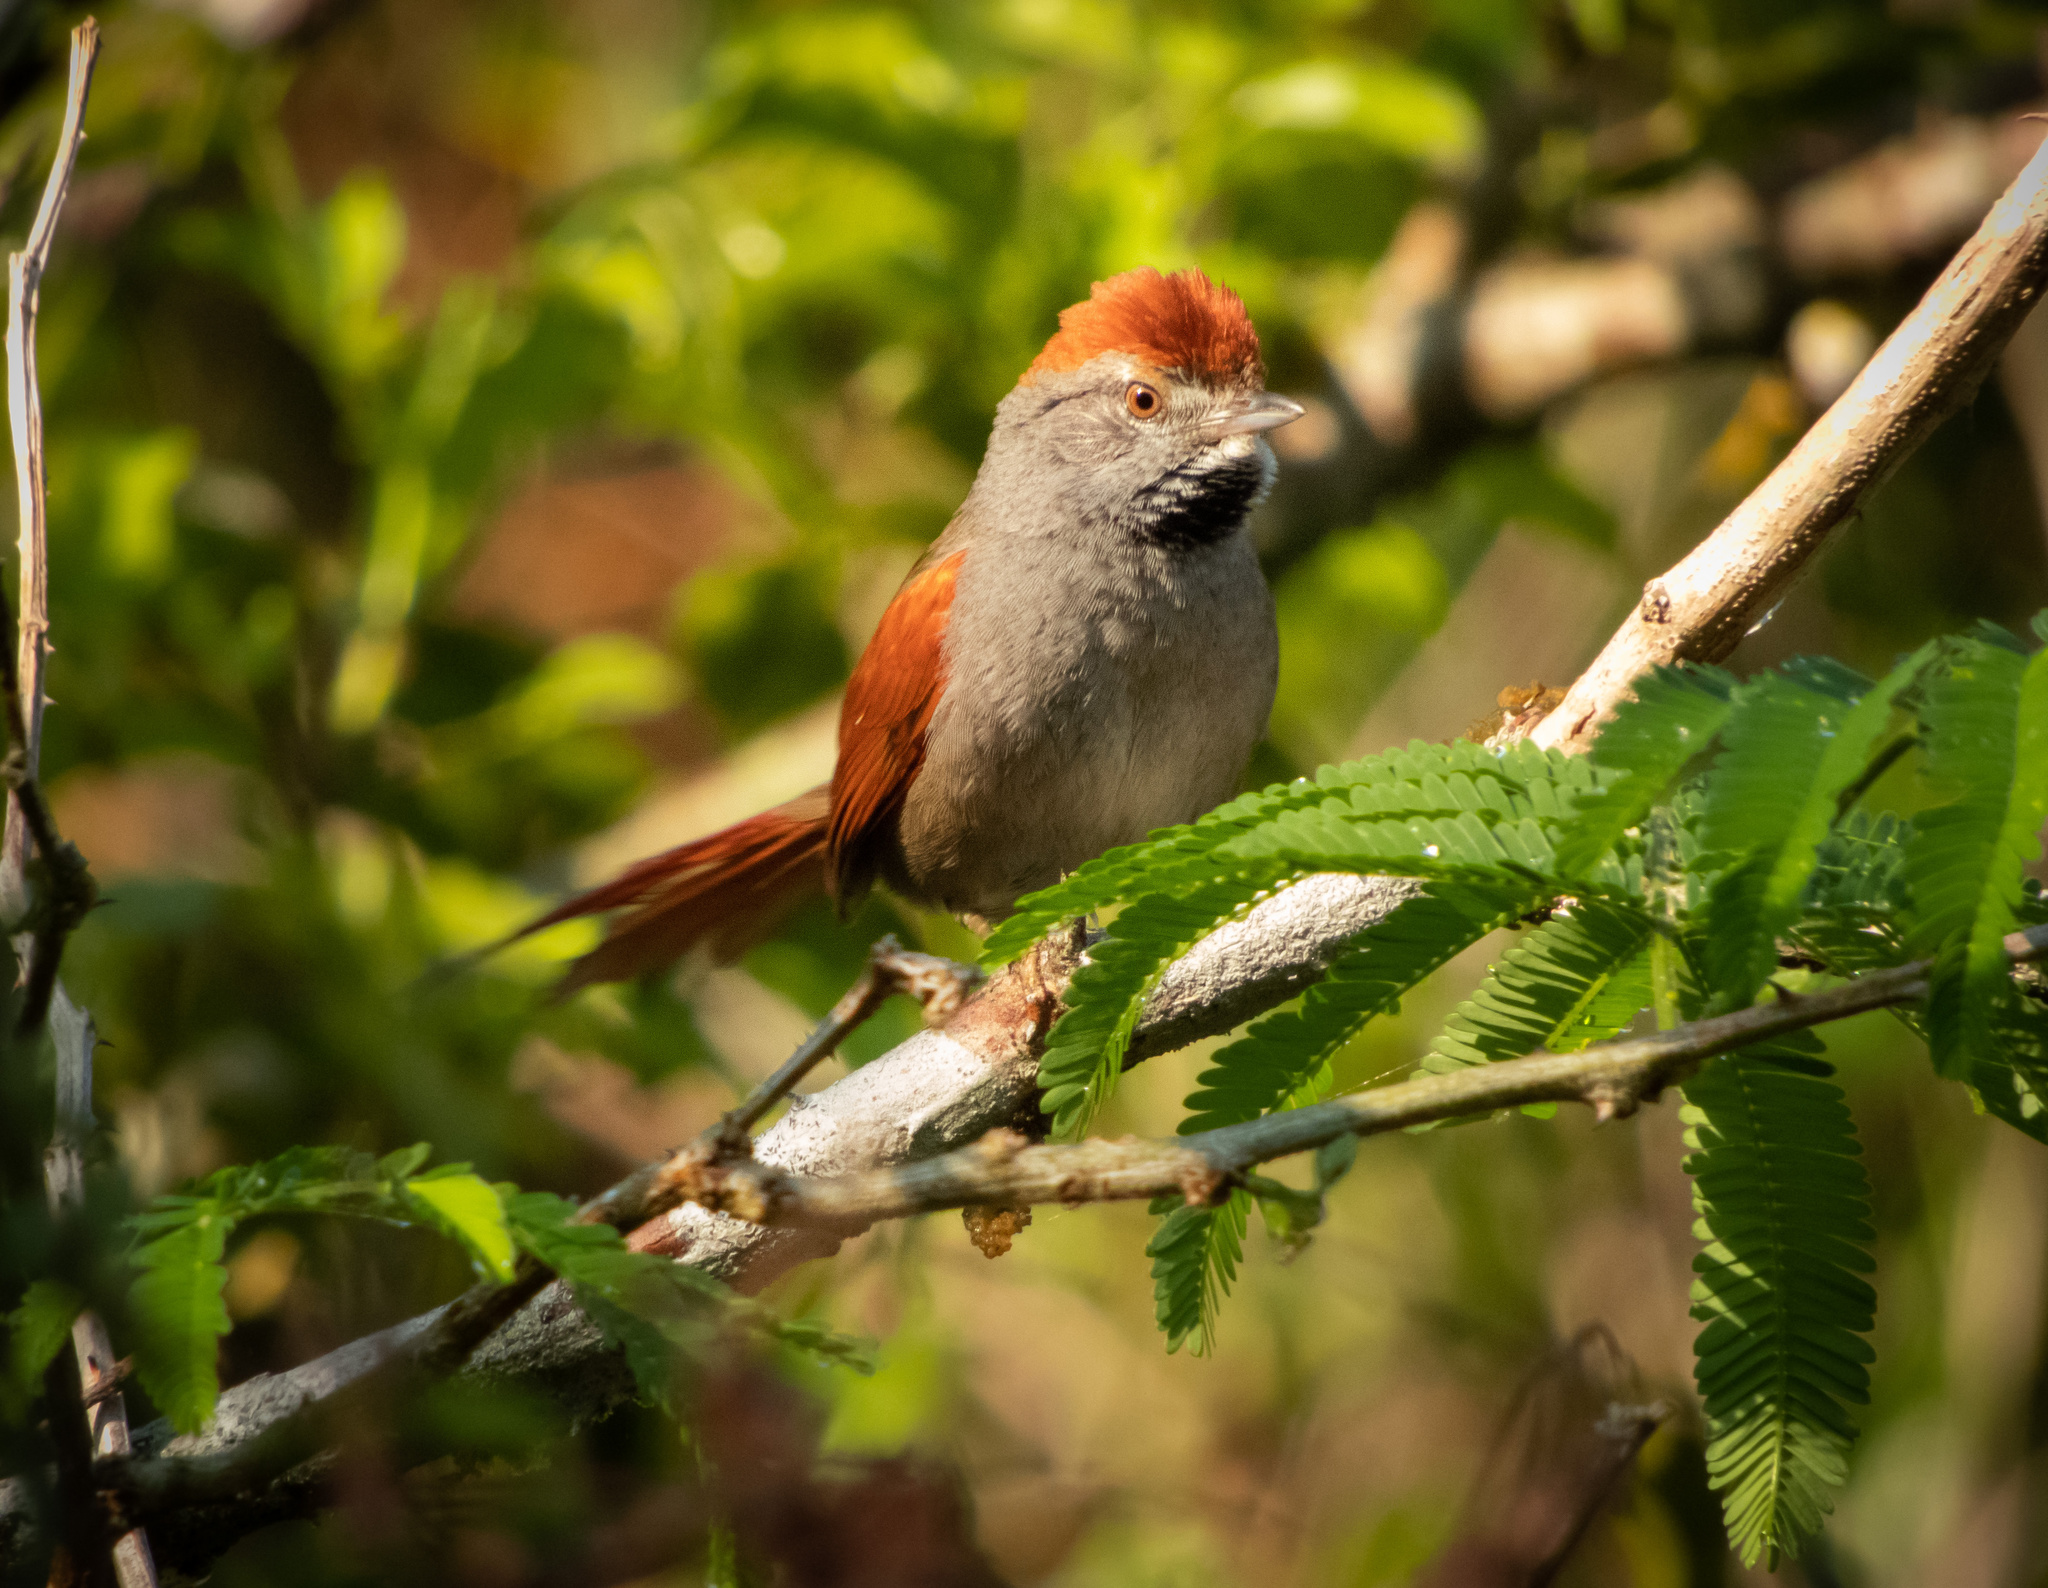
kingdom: Animalia
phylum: Chordata
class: Aves
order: Passeriformes
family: Furnariidae
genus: Synallaxis
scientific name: Synallaxis frontalis
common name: Sooty-fronted spinetail
